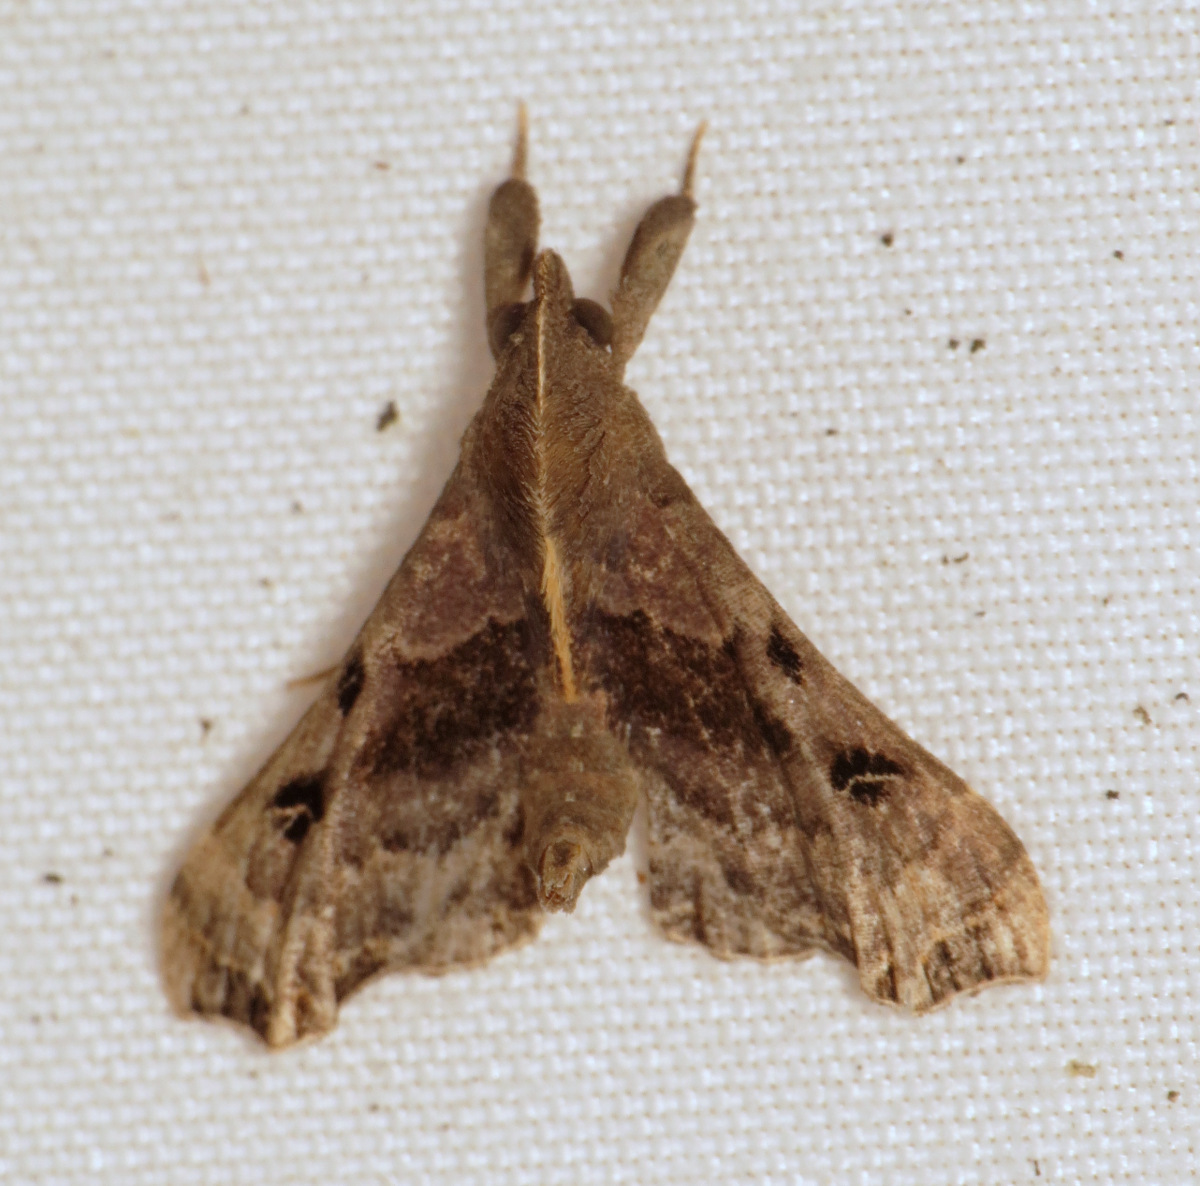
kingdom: Animalia
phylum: Arthropoda
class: Insecta
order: Lepidoptera
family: Erebidae
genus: Palthis
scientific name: Palthis asopialis
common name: Faint-spotted palthis moth
